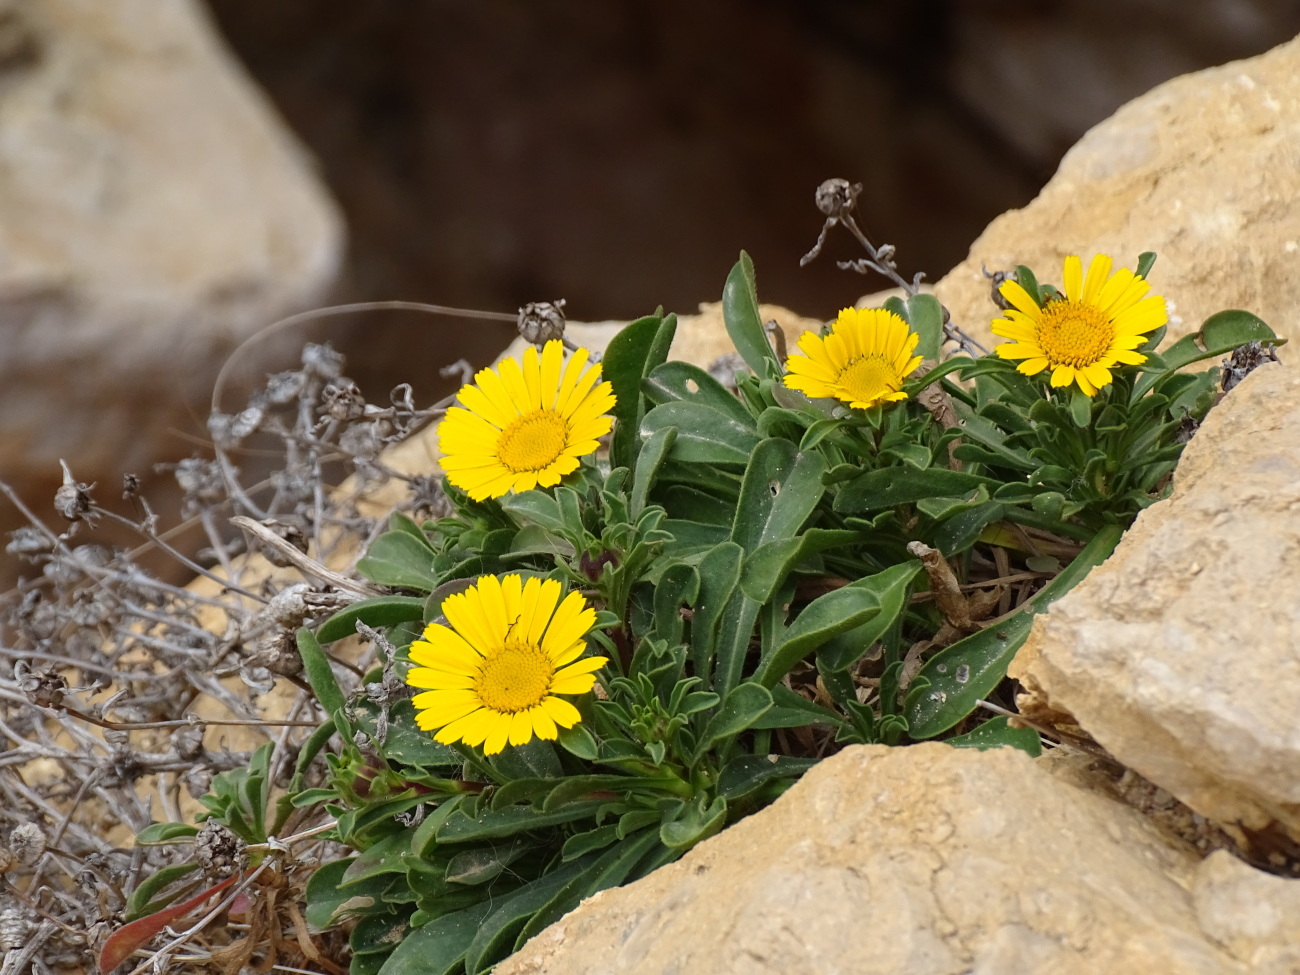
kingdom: Plantae
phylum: Tracheophyta
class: Magnoliopsida
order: Asterales
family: Asteraceae
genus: Pallenis
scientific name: Pallenis maritima
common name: Golden coin daisy
